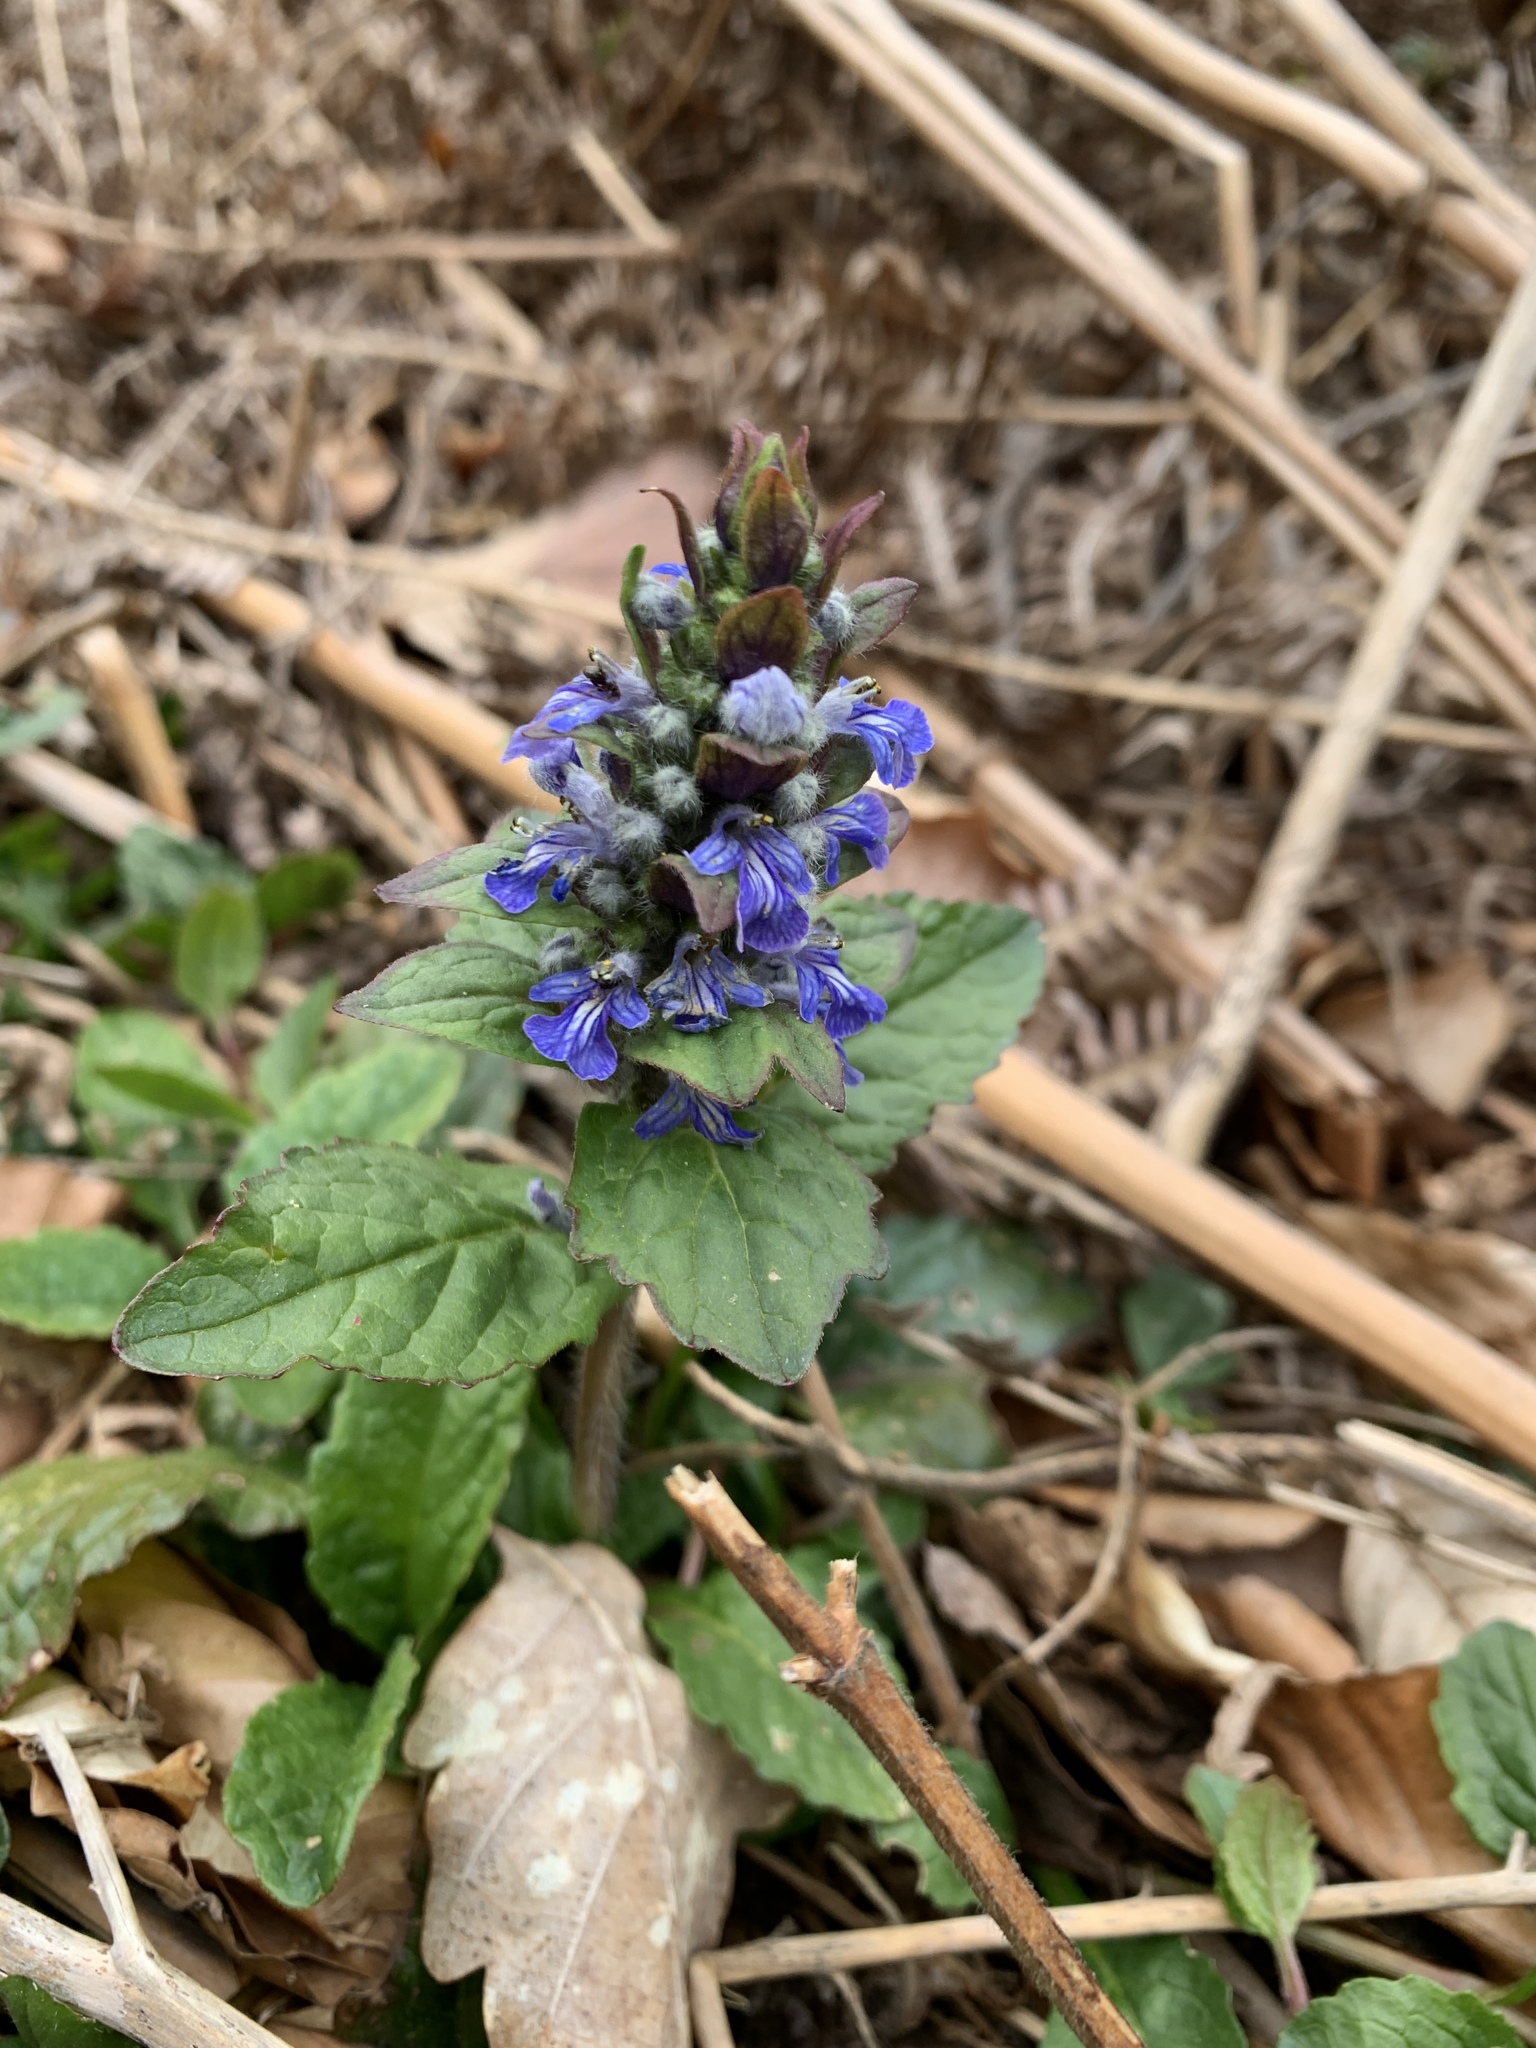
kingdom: Plantae
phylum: Tracheophyta
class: Magnoliopsida
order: Lamiales
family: Lamiaceae
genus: Ajuga
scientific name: Ajuga reptans
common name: Bugle
